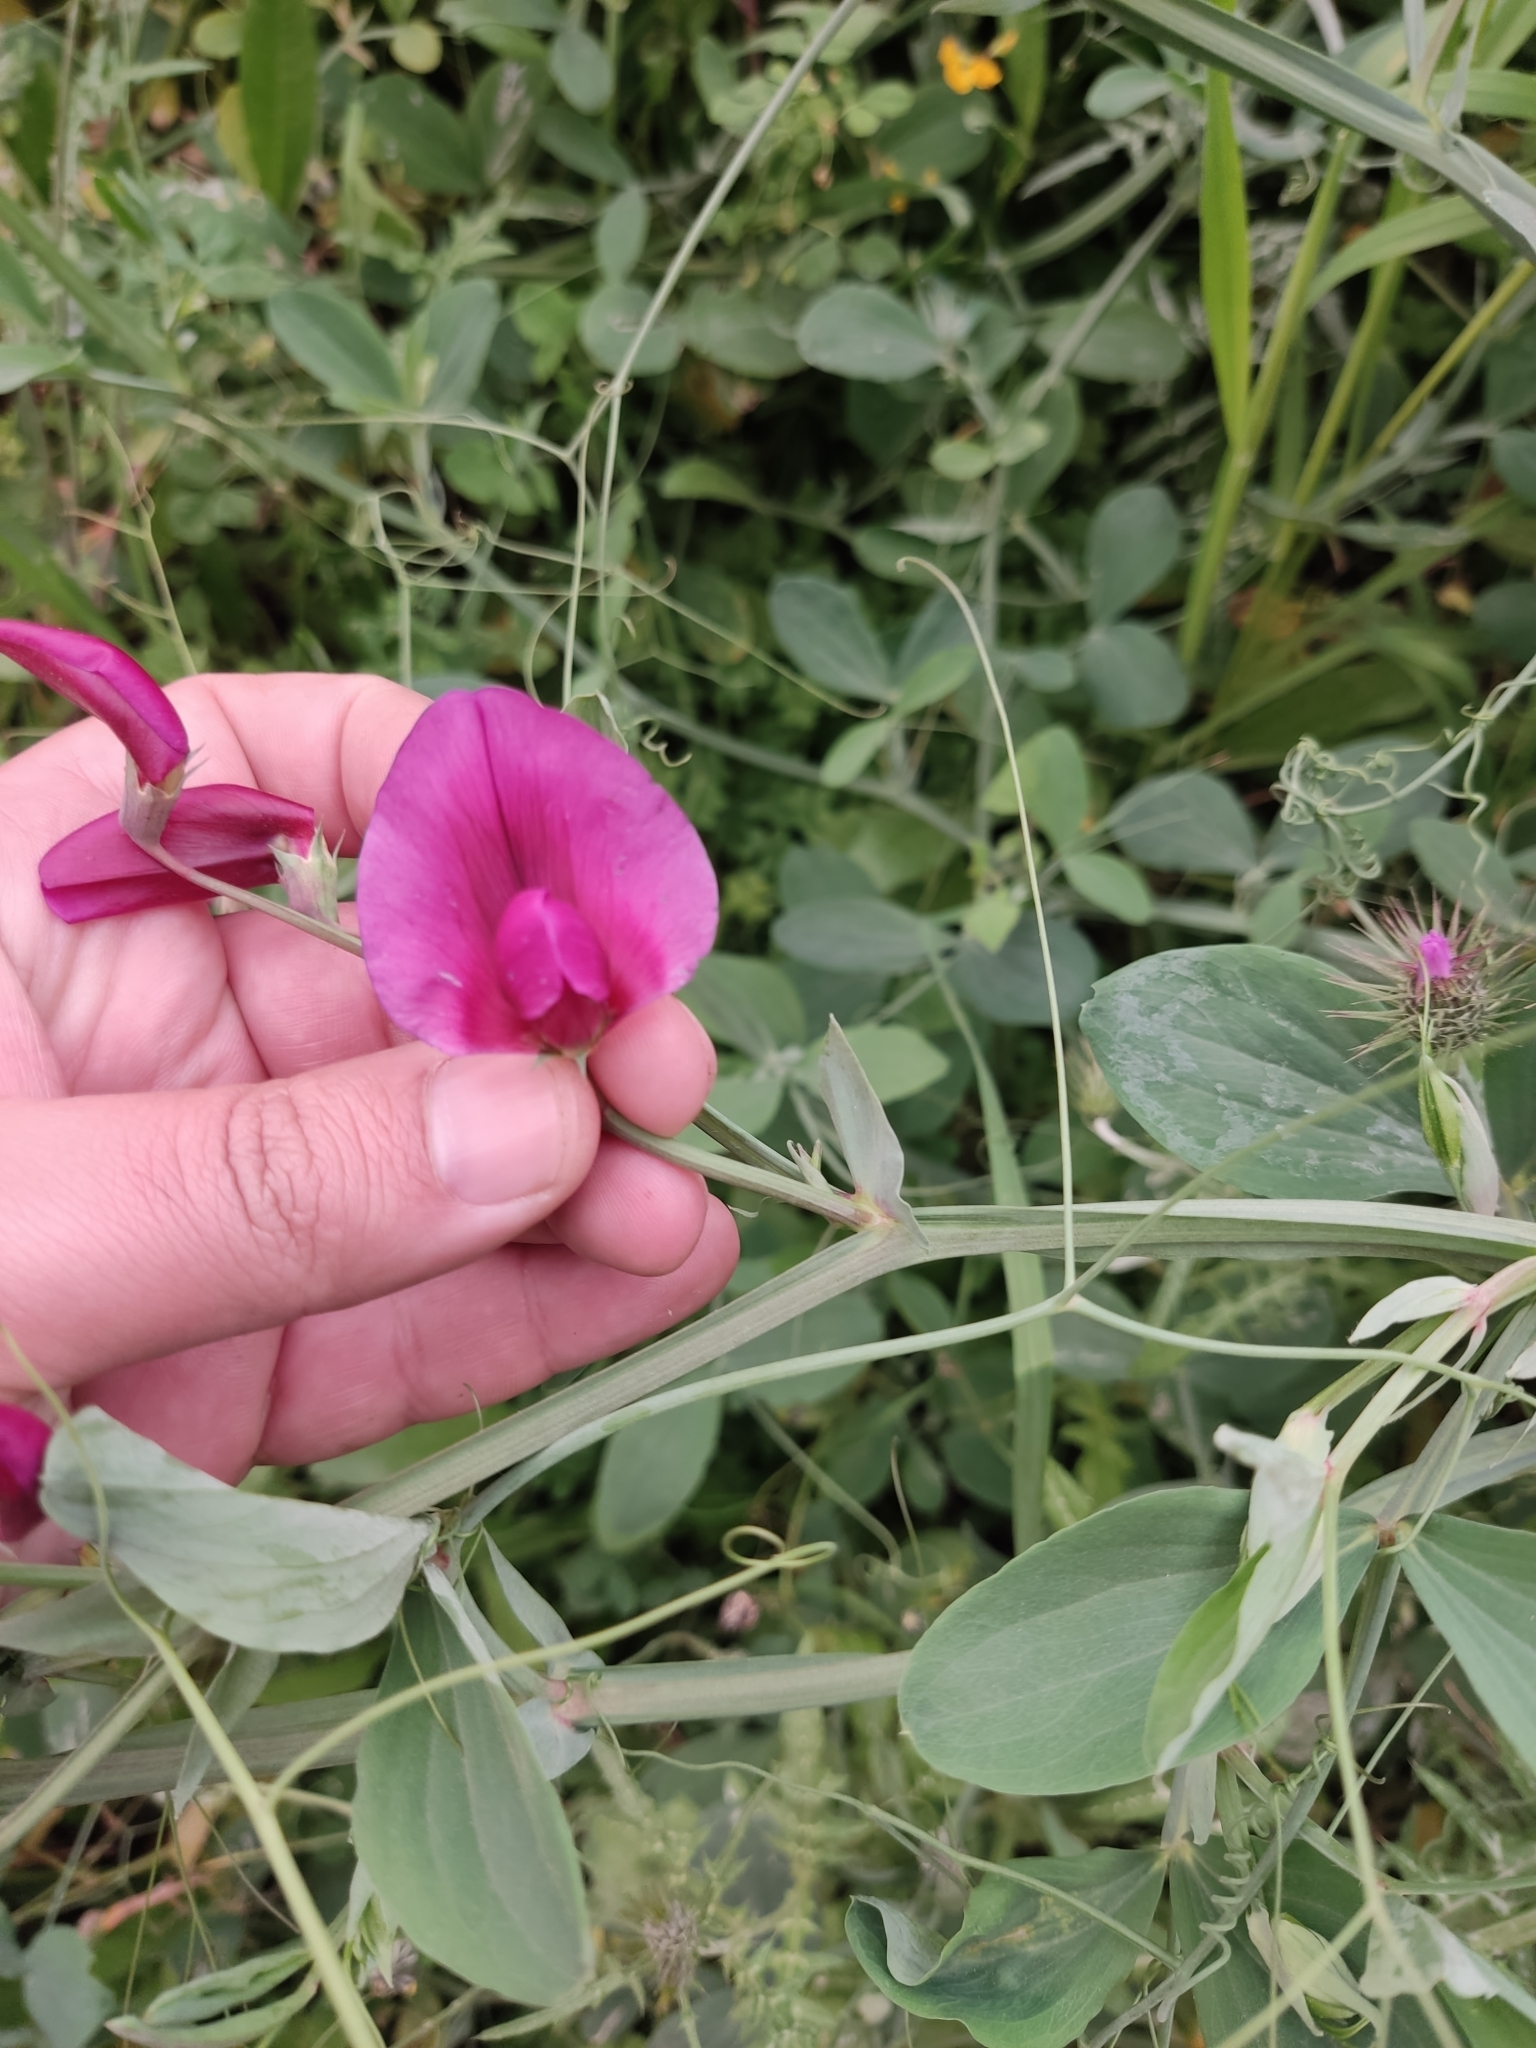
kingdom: Plantae
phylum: Tracheophyta
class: Magnoliopsida
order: Fabales
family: Fabaceae
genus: Lathyrus
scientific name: Lathyrus tingitanus
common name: Tangier pea
